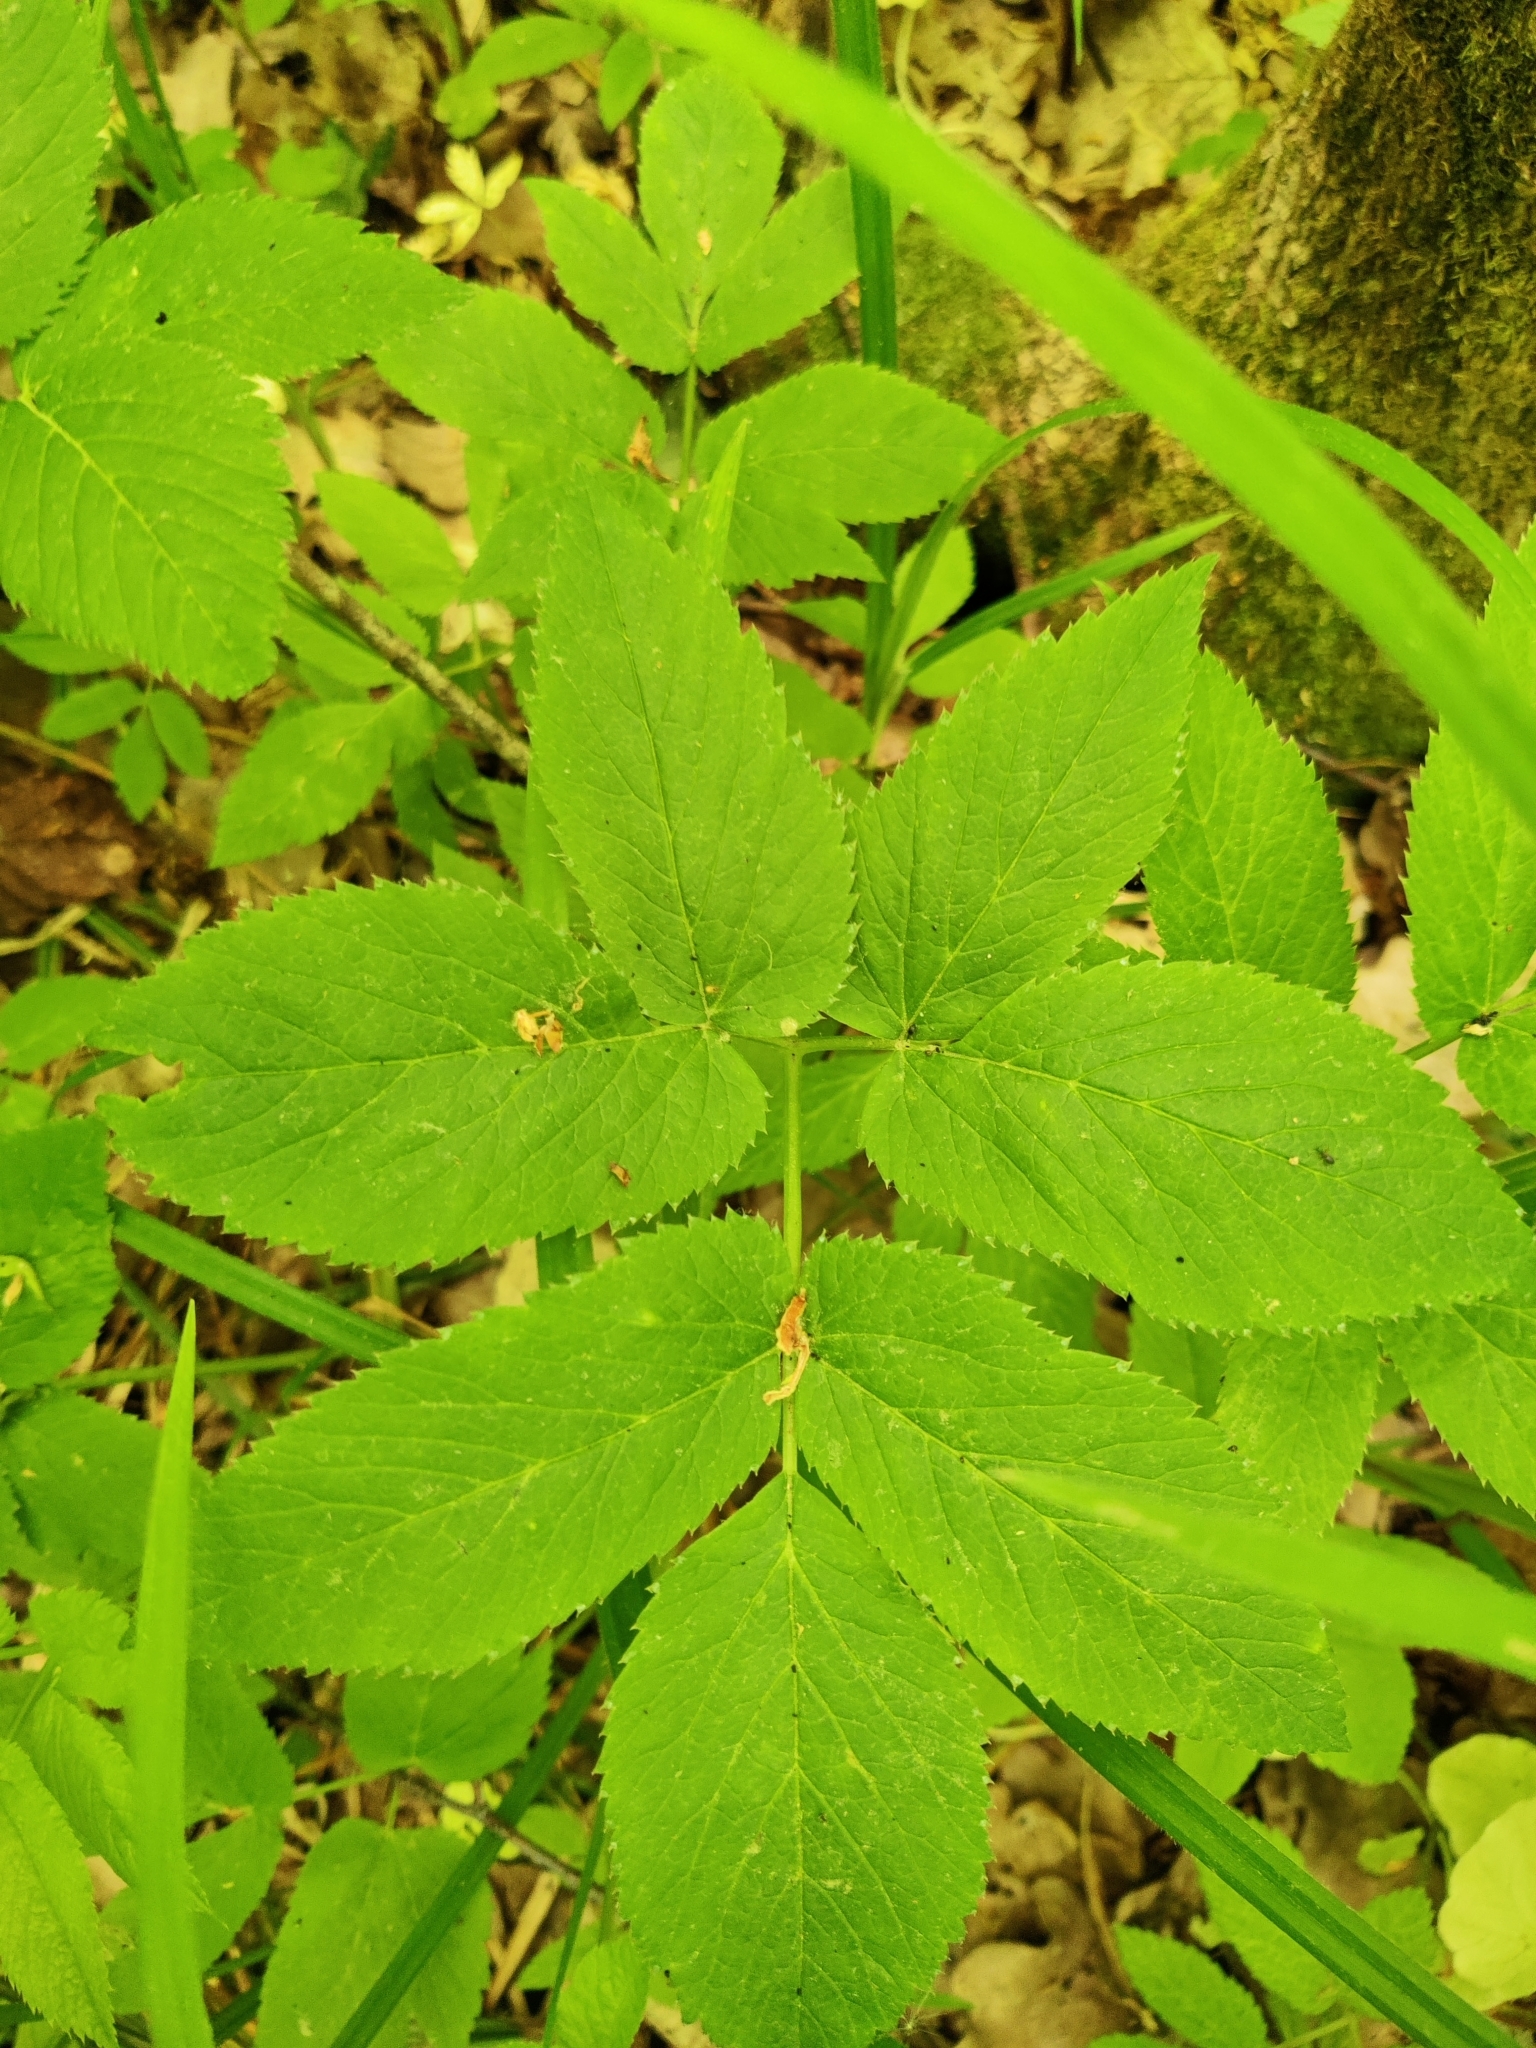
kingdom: Plantae
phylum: Tracheophyta
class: Magnoliopsida
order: Apiales
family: Apiaceae
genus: Aegopodium
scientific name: Aegopodium podagraria
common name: Ground-elder
